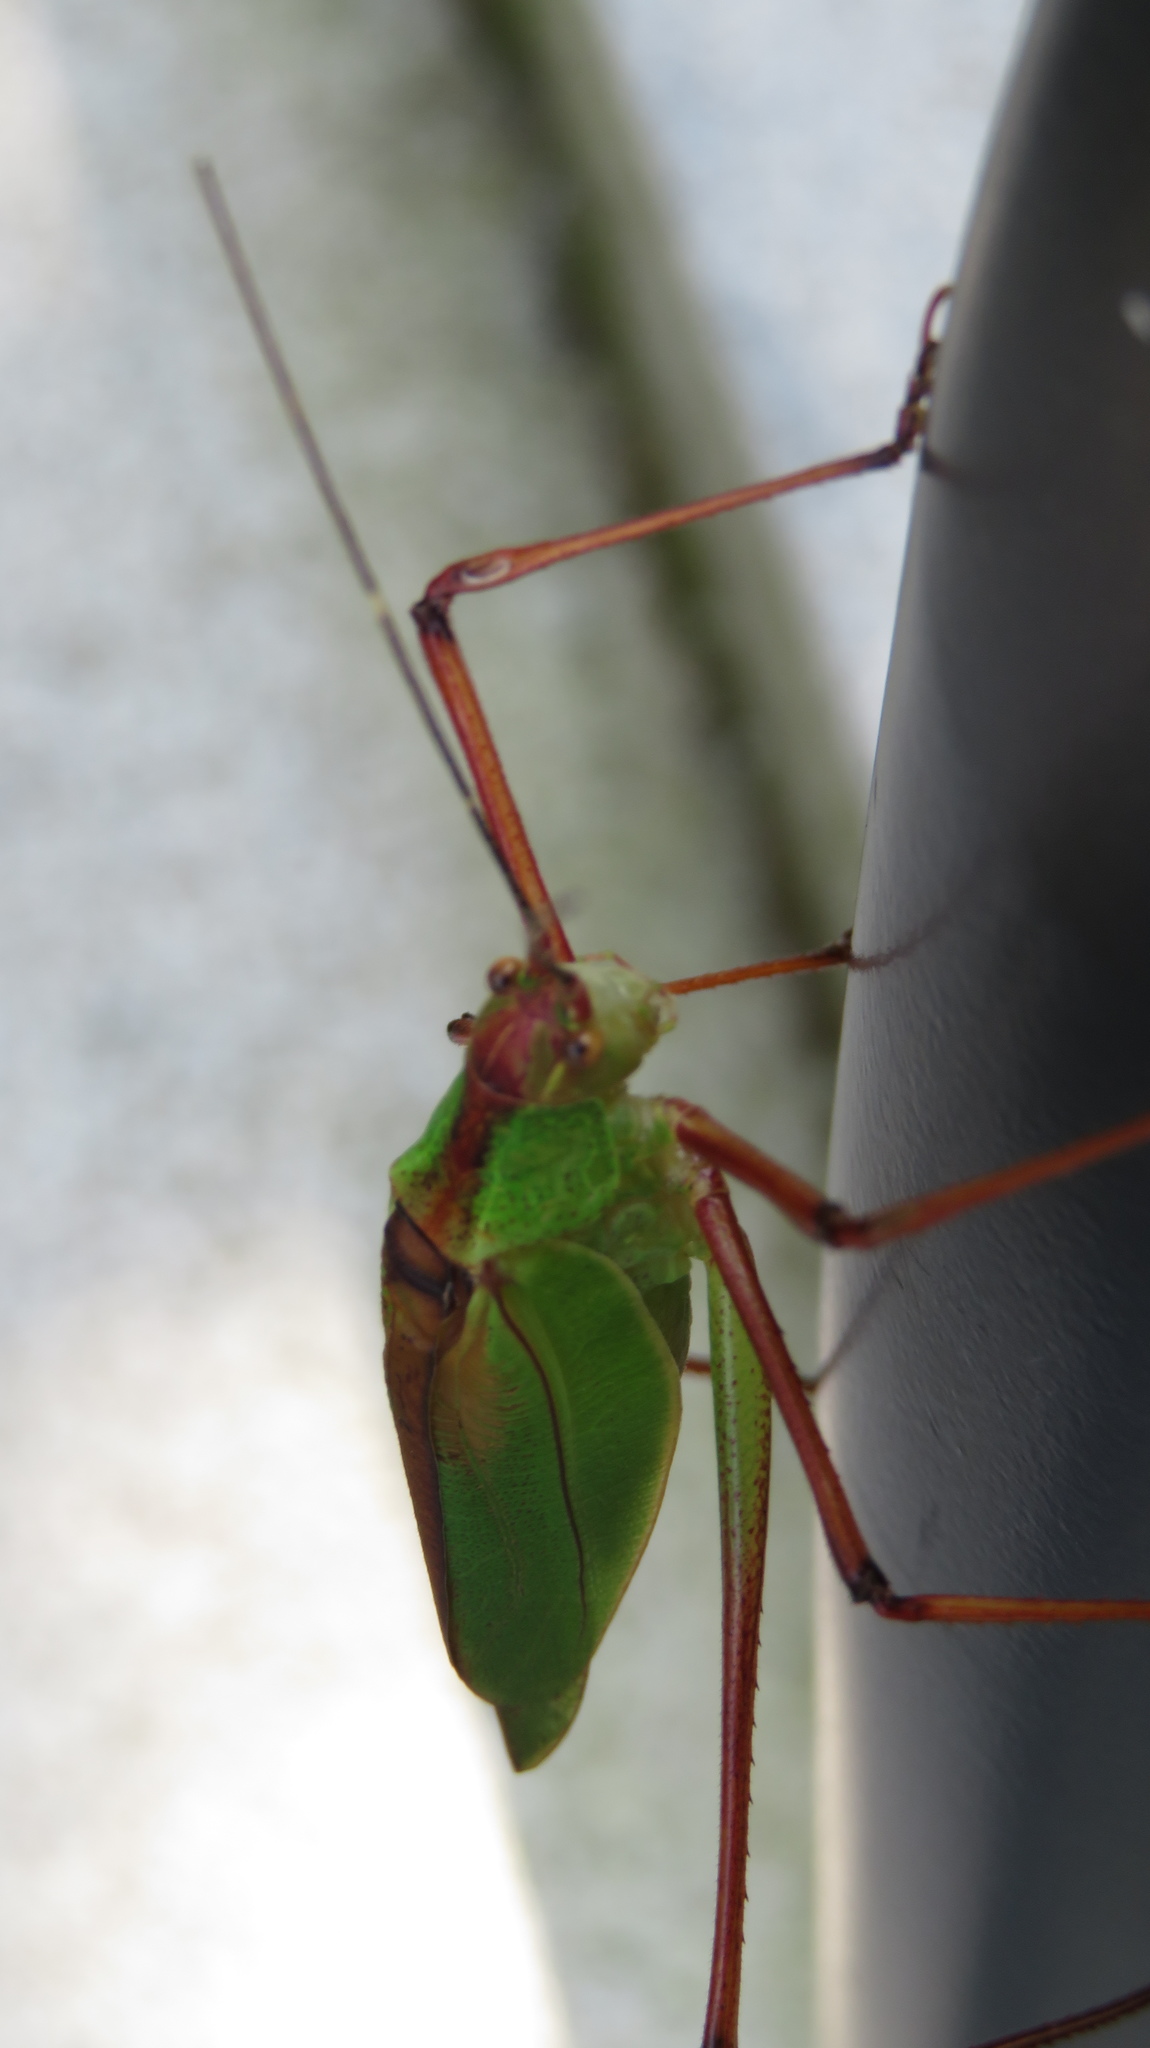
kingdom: Animalia
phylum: Arthropoda
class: Insecta
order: Orthoptera
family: Tettigoniidae
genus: Shirakisotima
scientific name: Shirakisotima japonica
